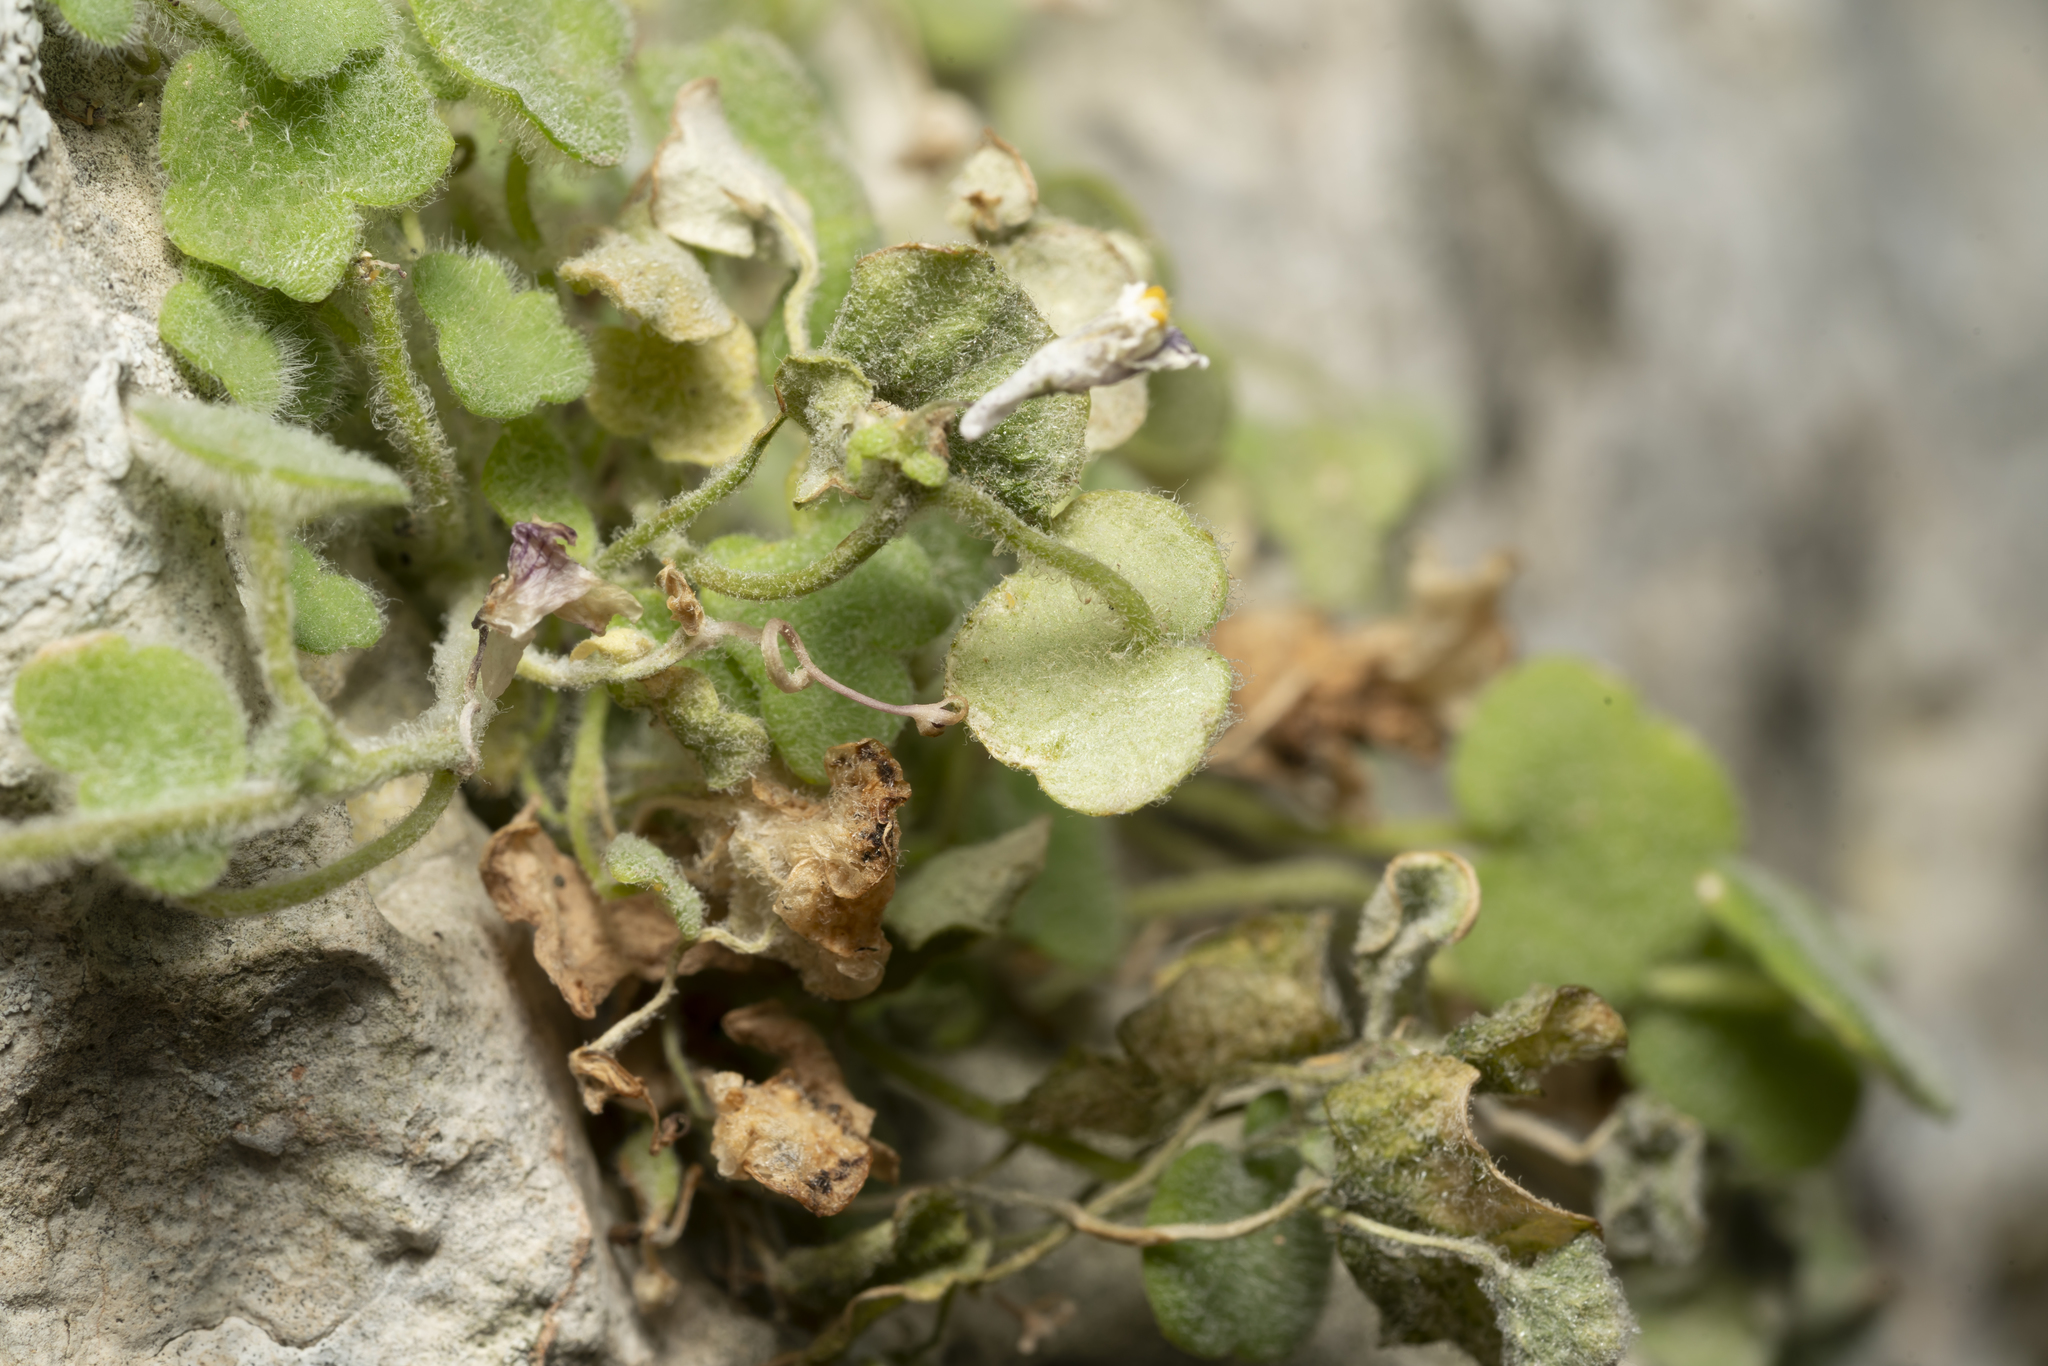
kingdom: Plantae
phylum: Tracheophyta
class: Magnoliopsida
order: Lamiales
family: Plantaginaceae
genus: Cymbalaria
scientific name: Cymbalaria acutiloba
